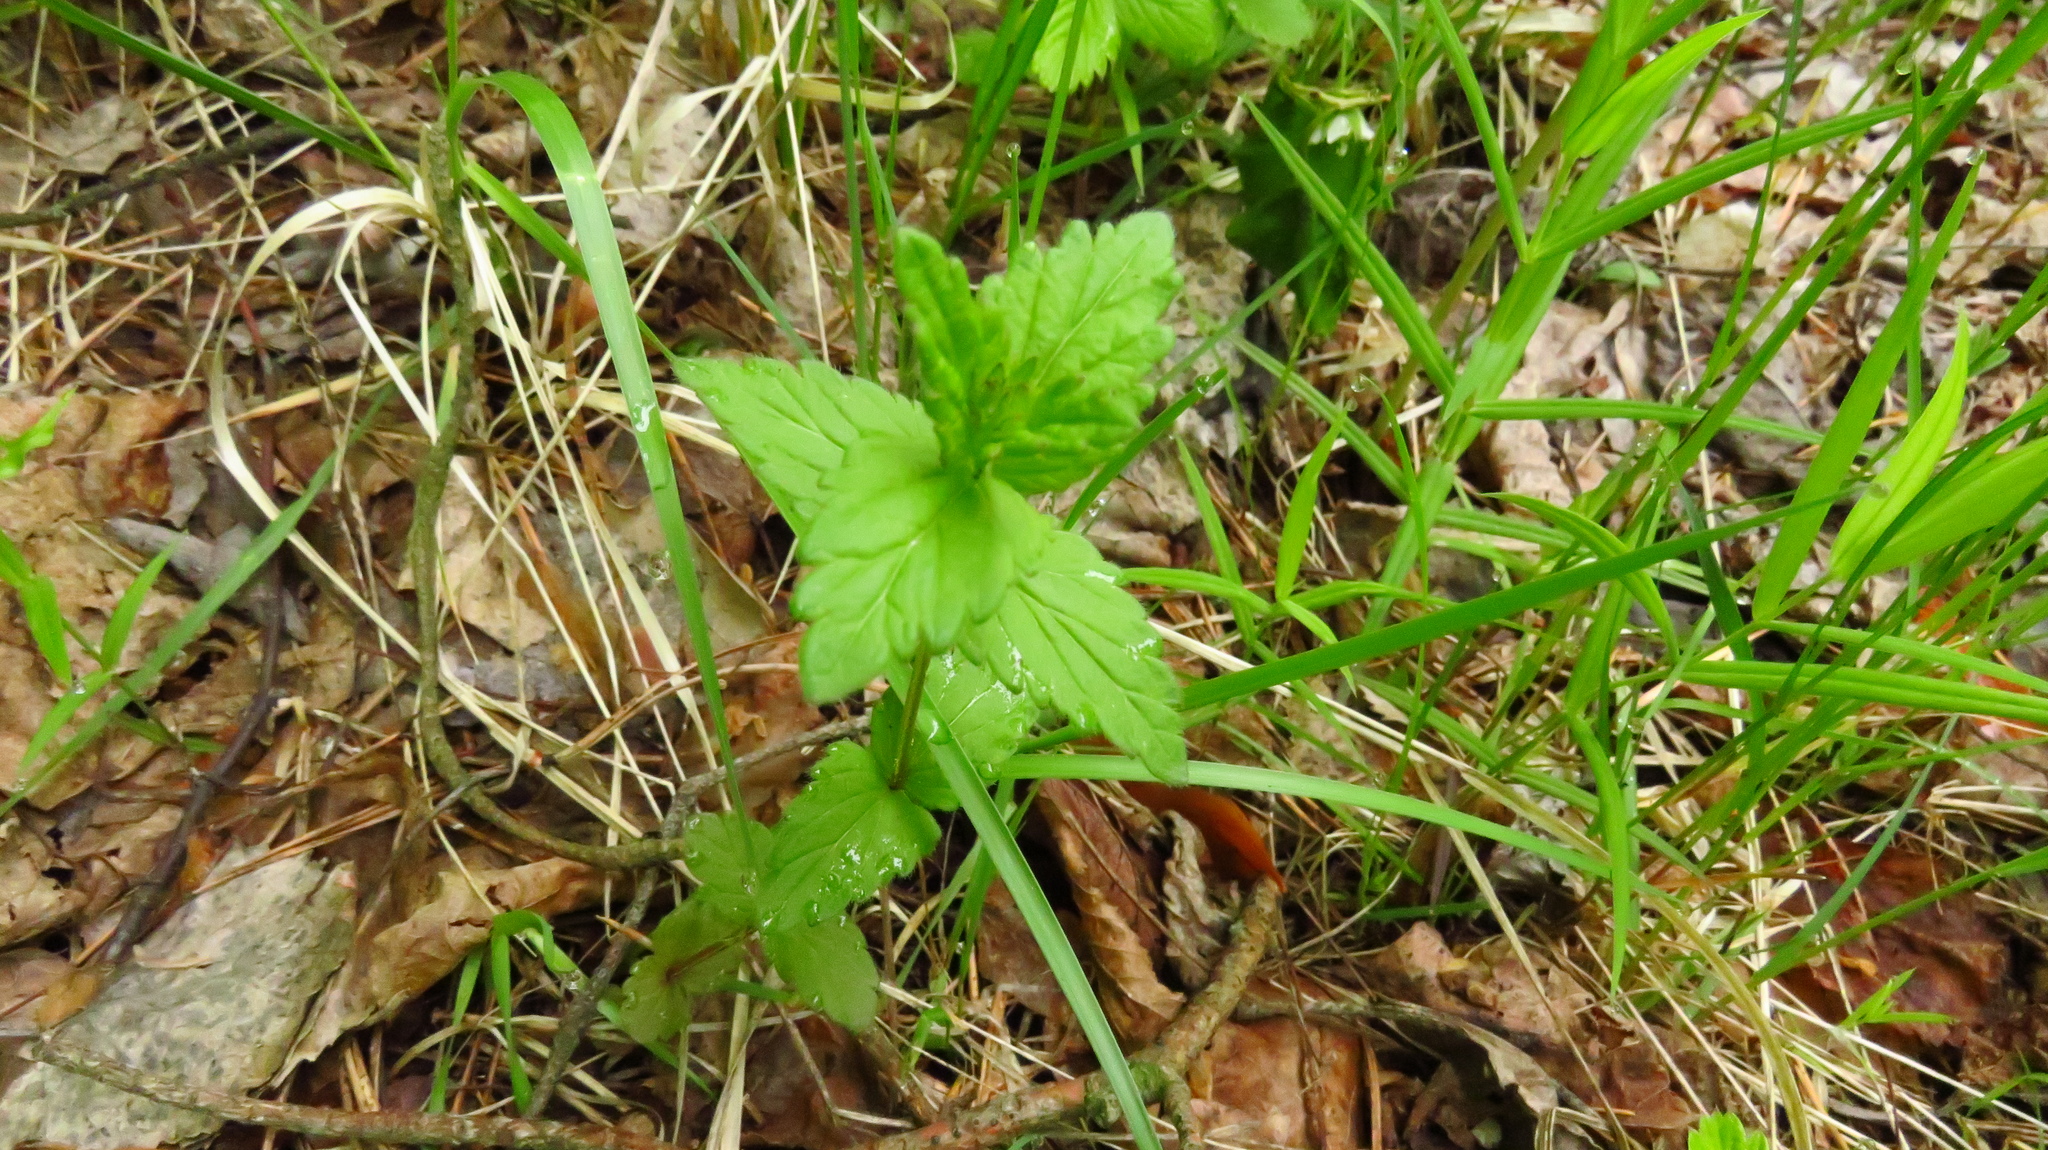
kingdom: Plantae
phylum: Tracheophyta
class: Magnoliopsida
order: Lamiales
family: Plantaginaceae
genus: Veronica
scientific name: Veronica chamaedrys
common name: Germander speedwell
